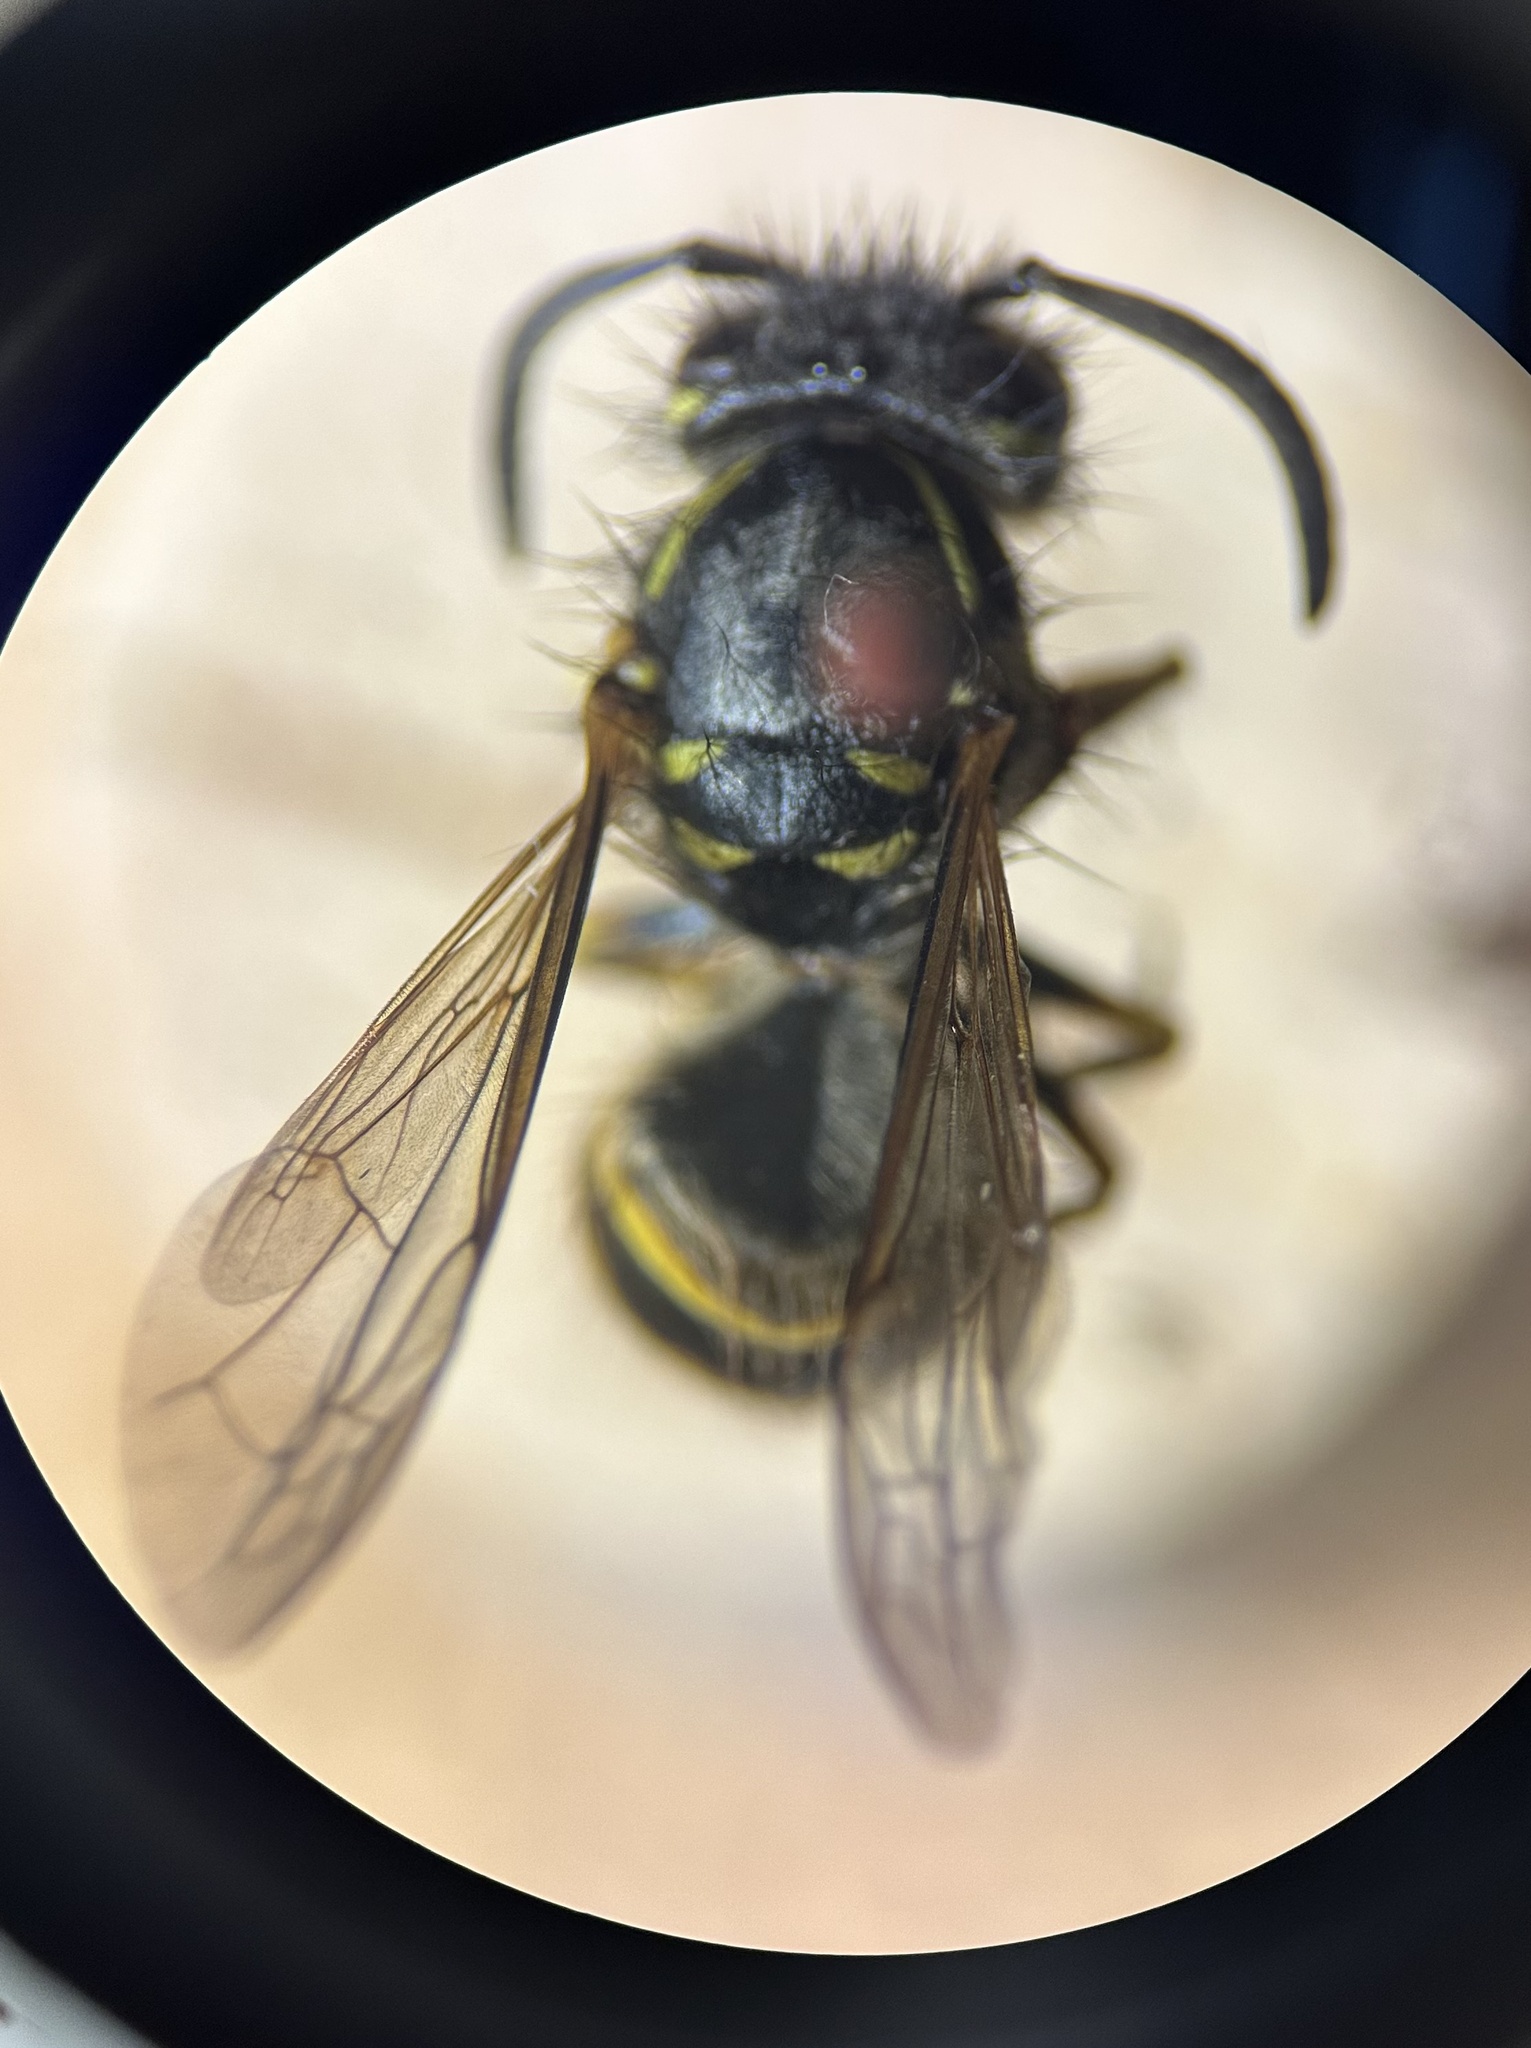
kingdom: Animalia
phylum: Arthropoda
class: Insecta
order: Hymenoptera
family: Vespidae
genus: Vespula
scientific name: Vespula alascensis
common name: Alaska yellowjacket
